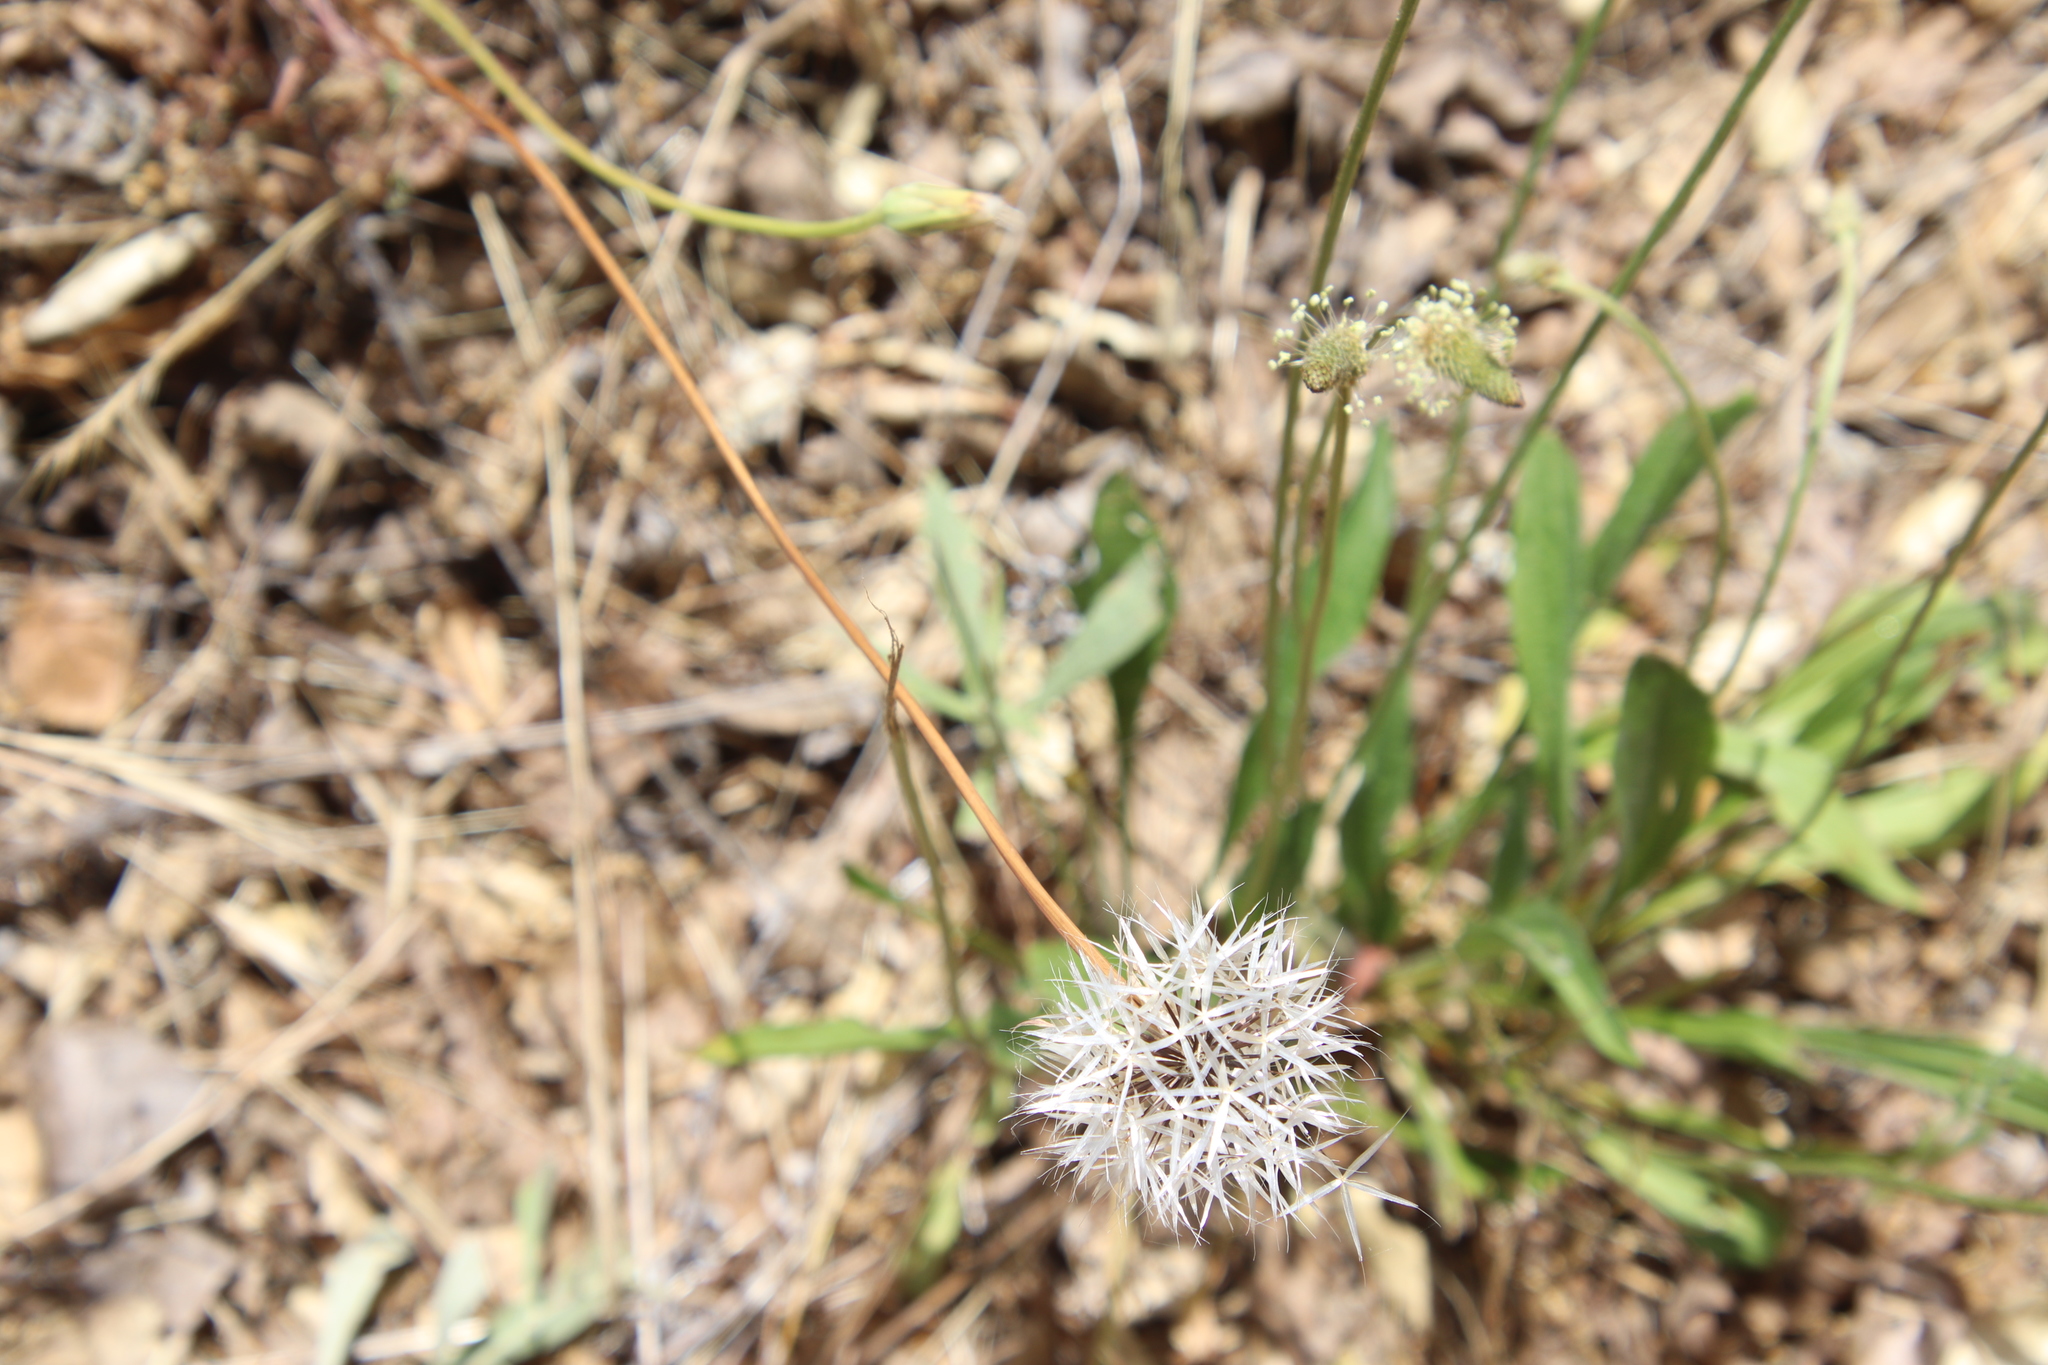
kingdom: Plantae
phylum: Tracheophyta
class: Magnoliopsida
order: Asterales
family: Asteraceae
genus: Microseris
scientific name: Microseris lindleyi
